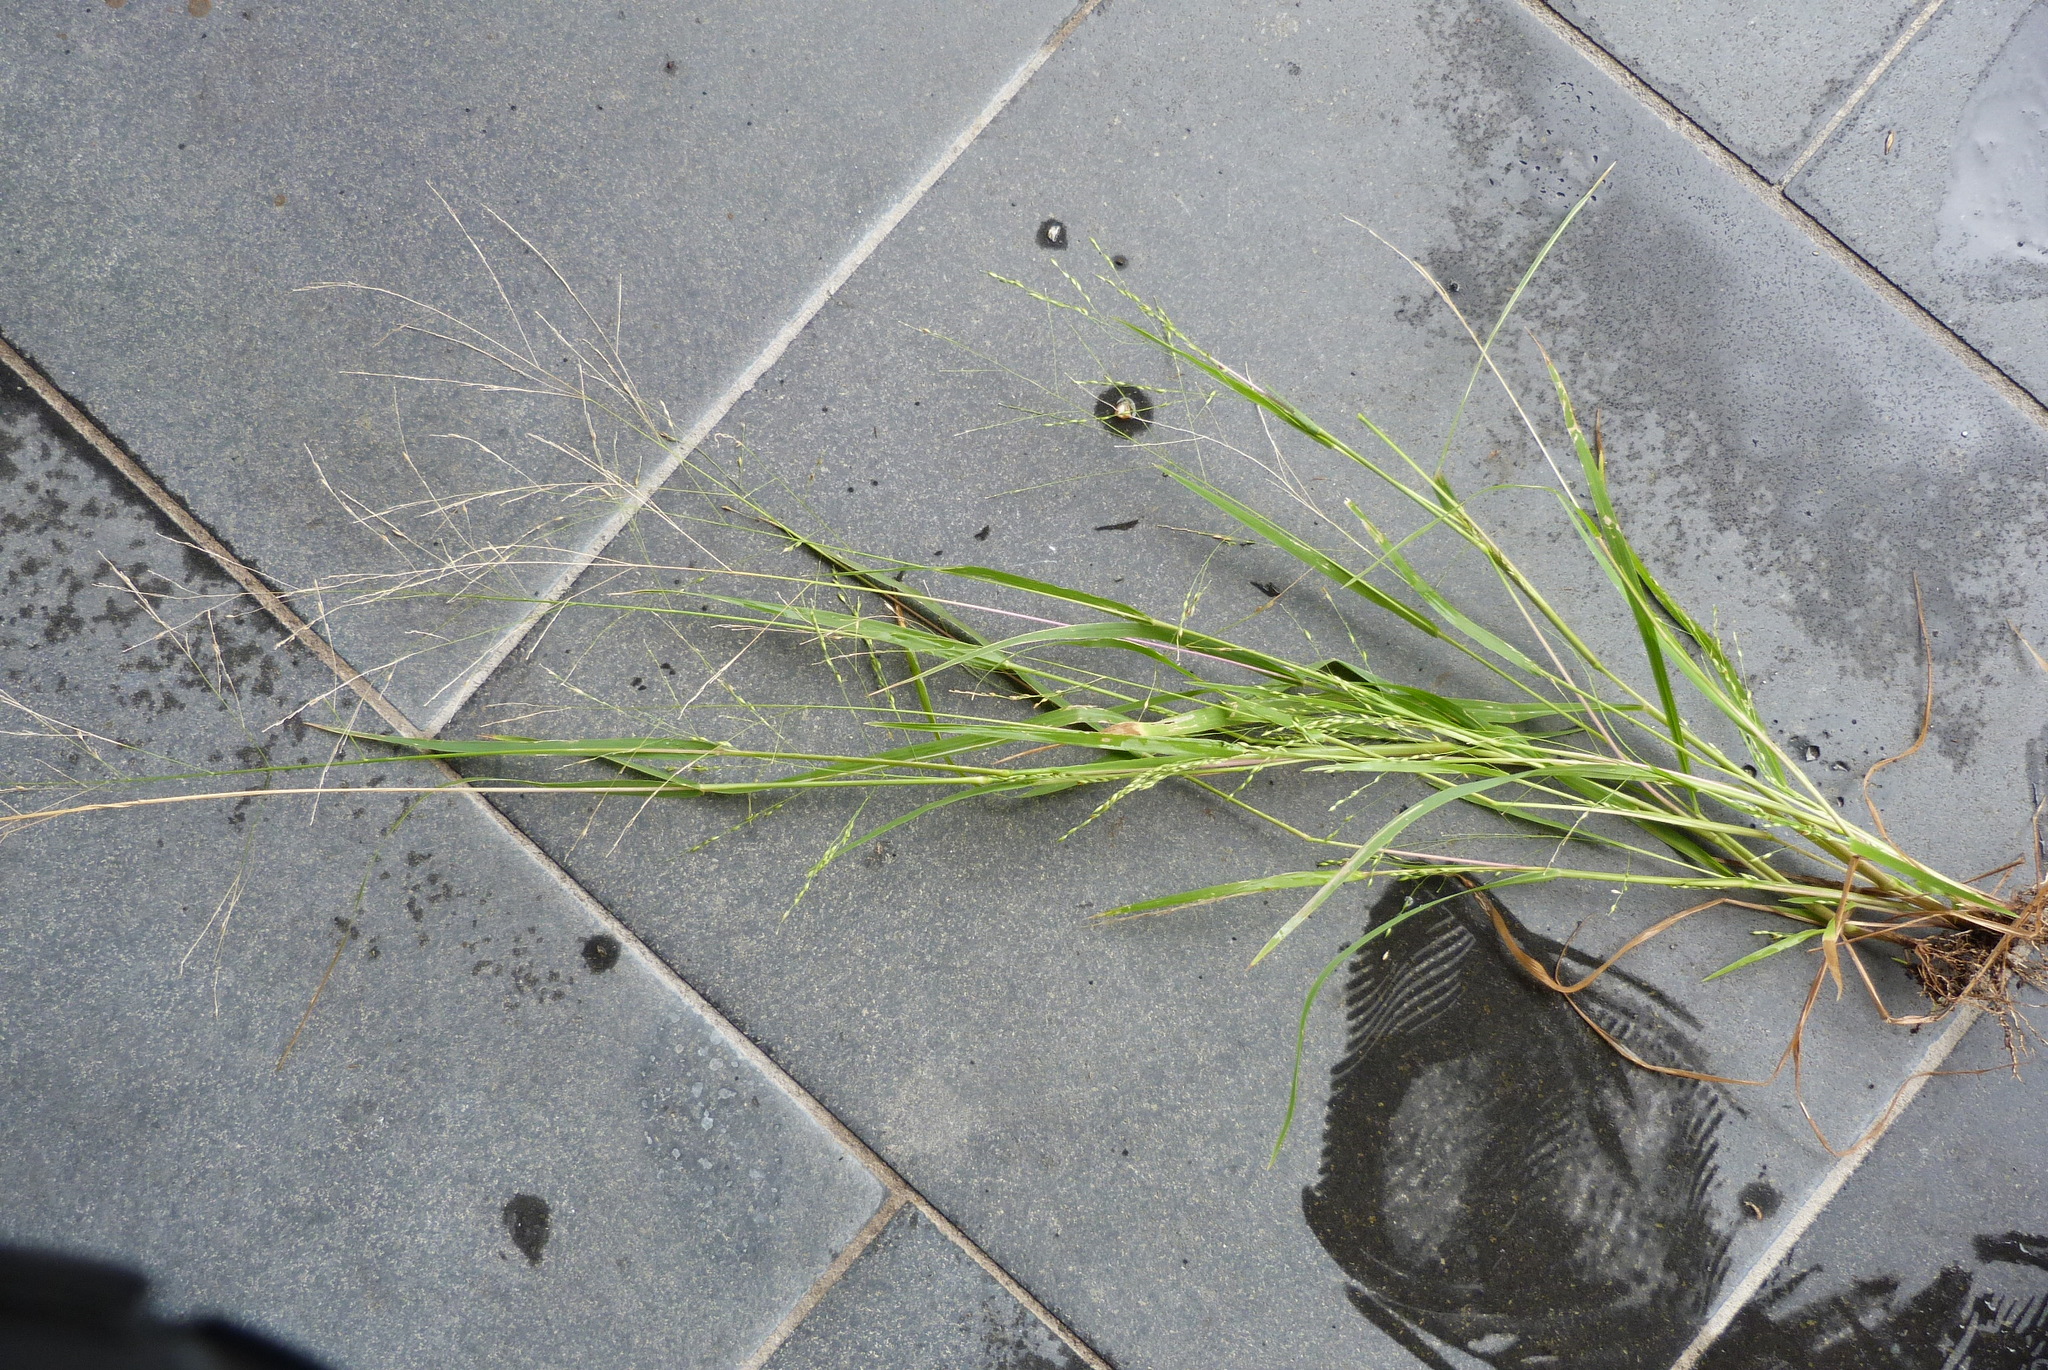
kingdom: Plantae
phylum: Tracheophyta
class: Liliopsida
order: Poales
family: Poaceae
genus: Panicum
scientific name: Panicum dichotomiflorum
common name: Autumn millet
